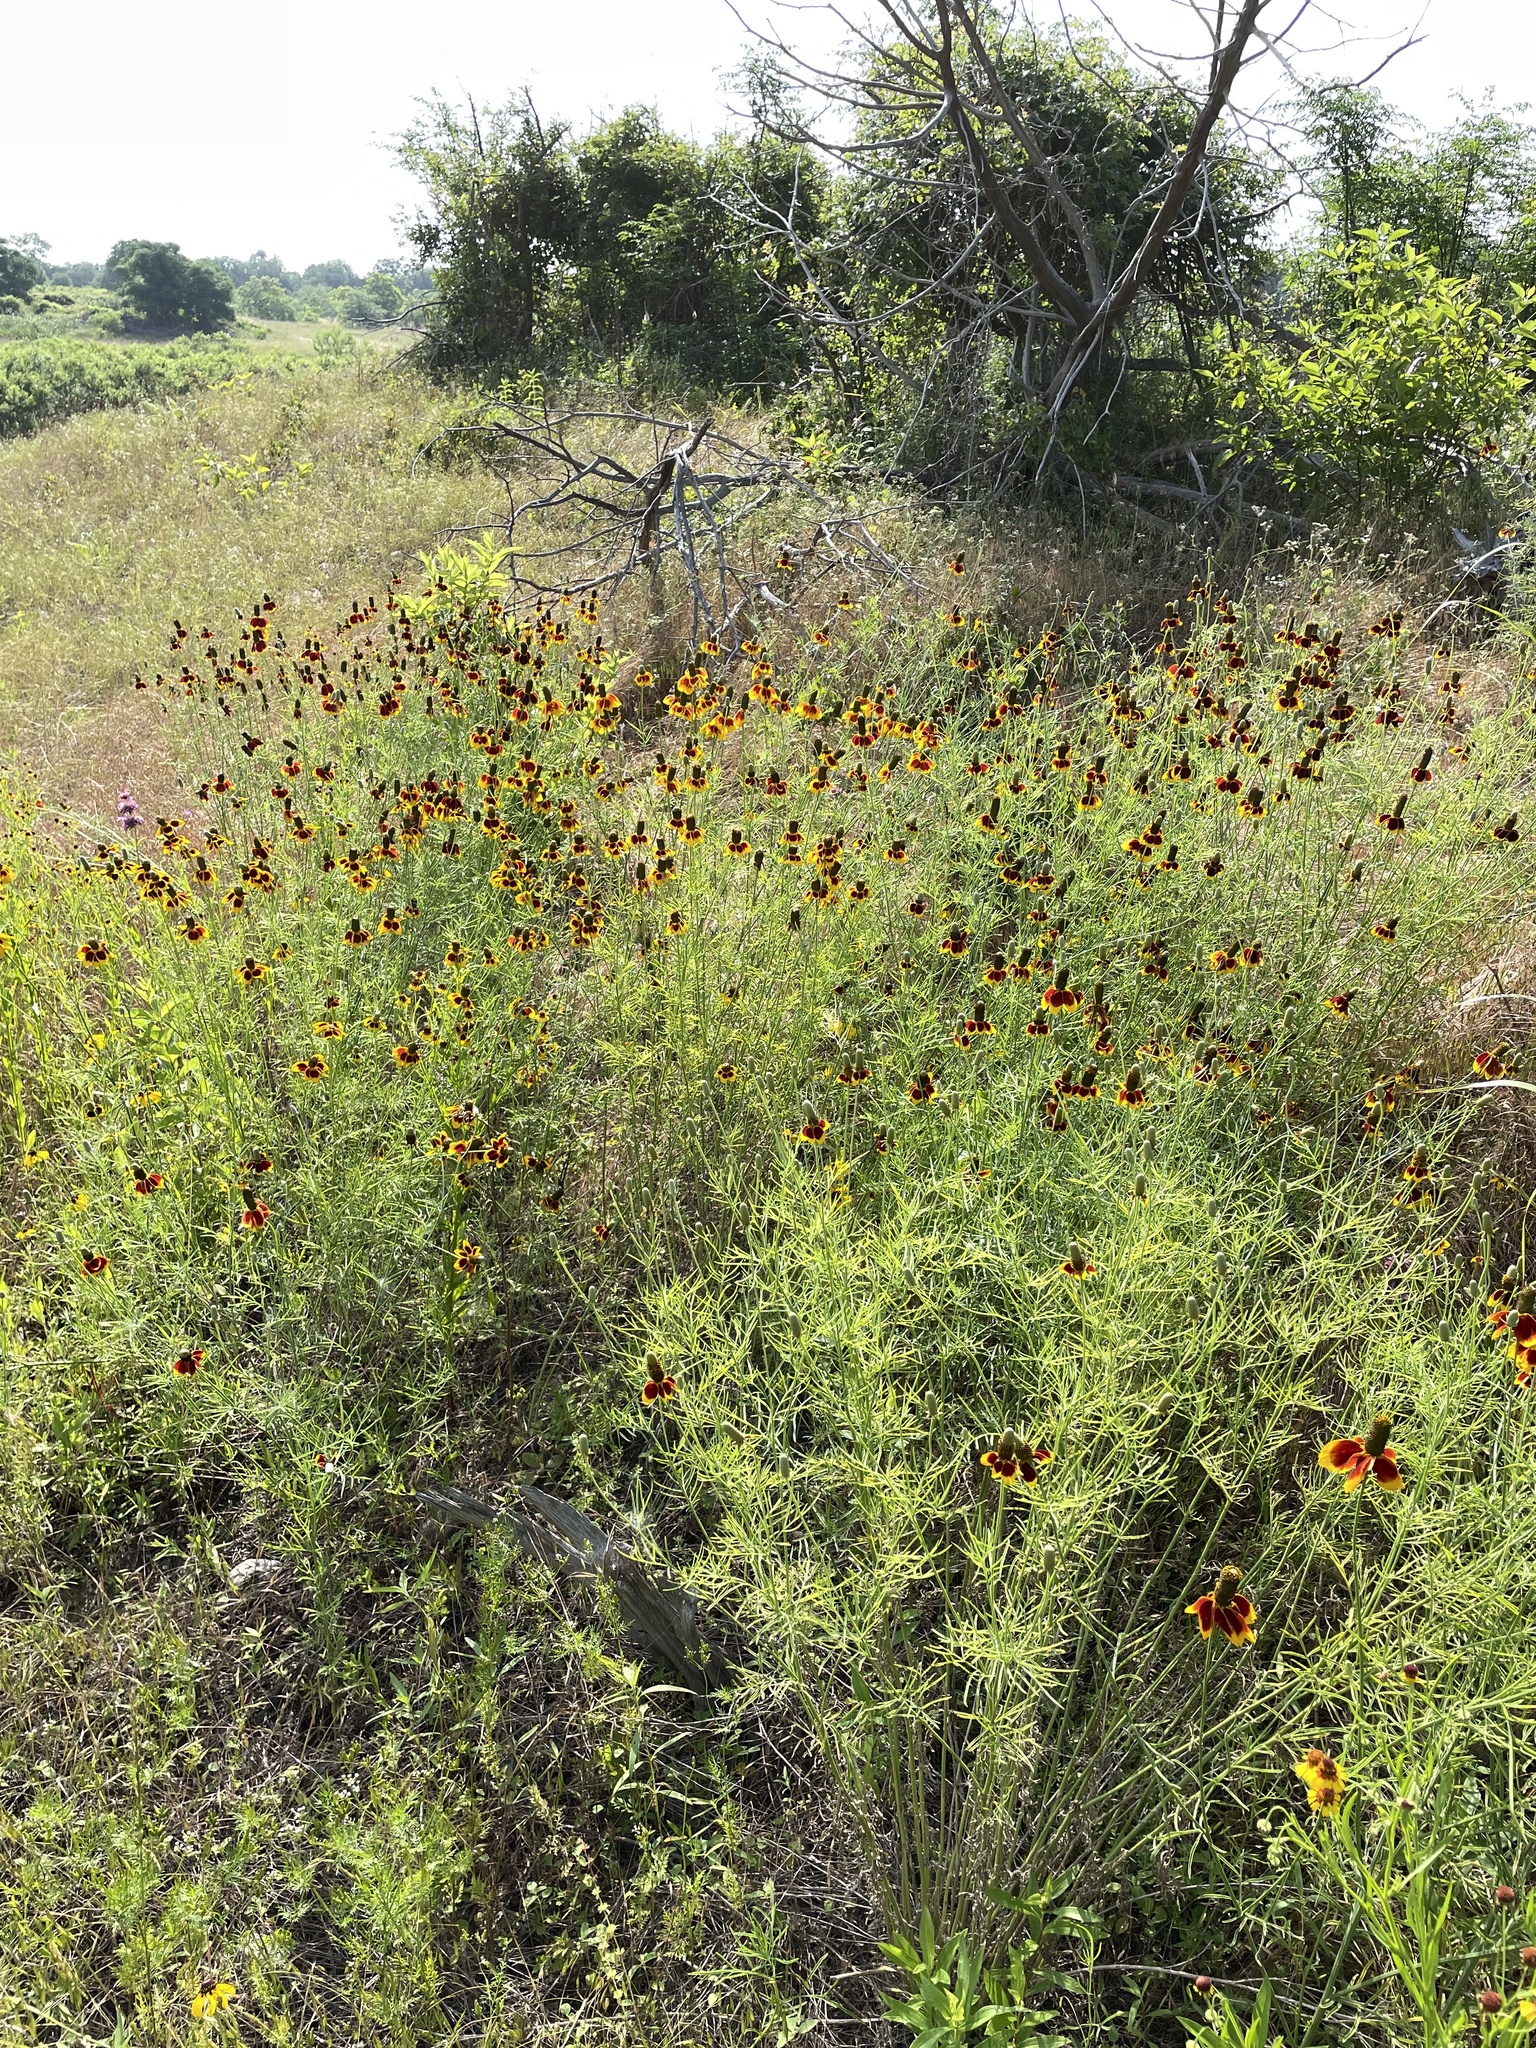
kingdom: Plantae
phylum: Tracheophyta
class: Magnoliopsida
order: Asterales
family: Asteraceae
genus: Ratibida
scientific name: Ratibida columnifera
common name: Prairie coneflower
